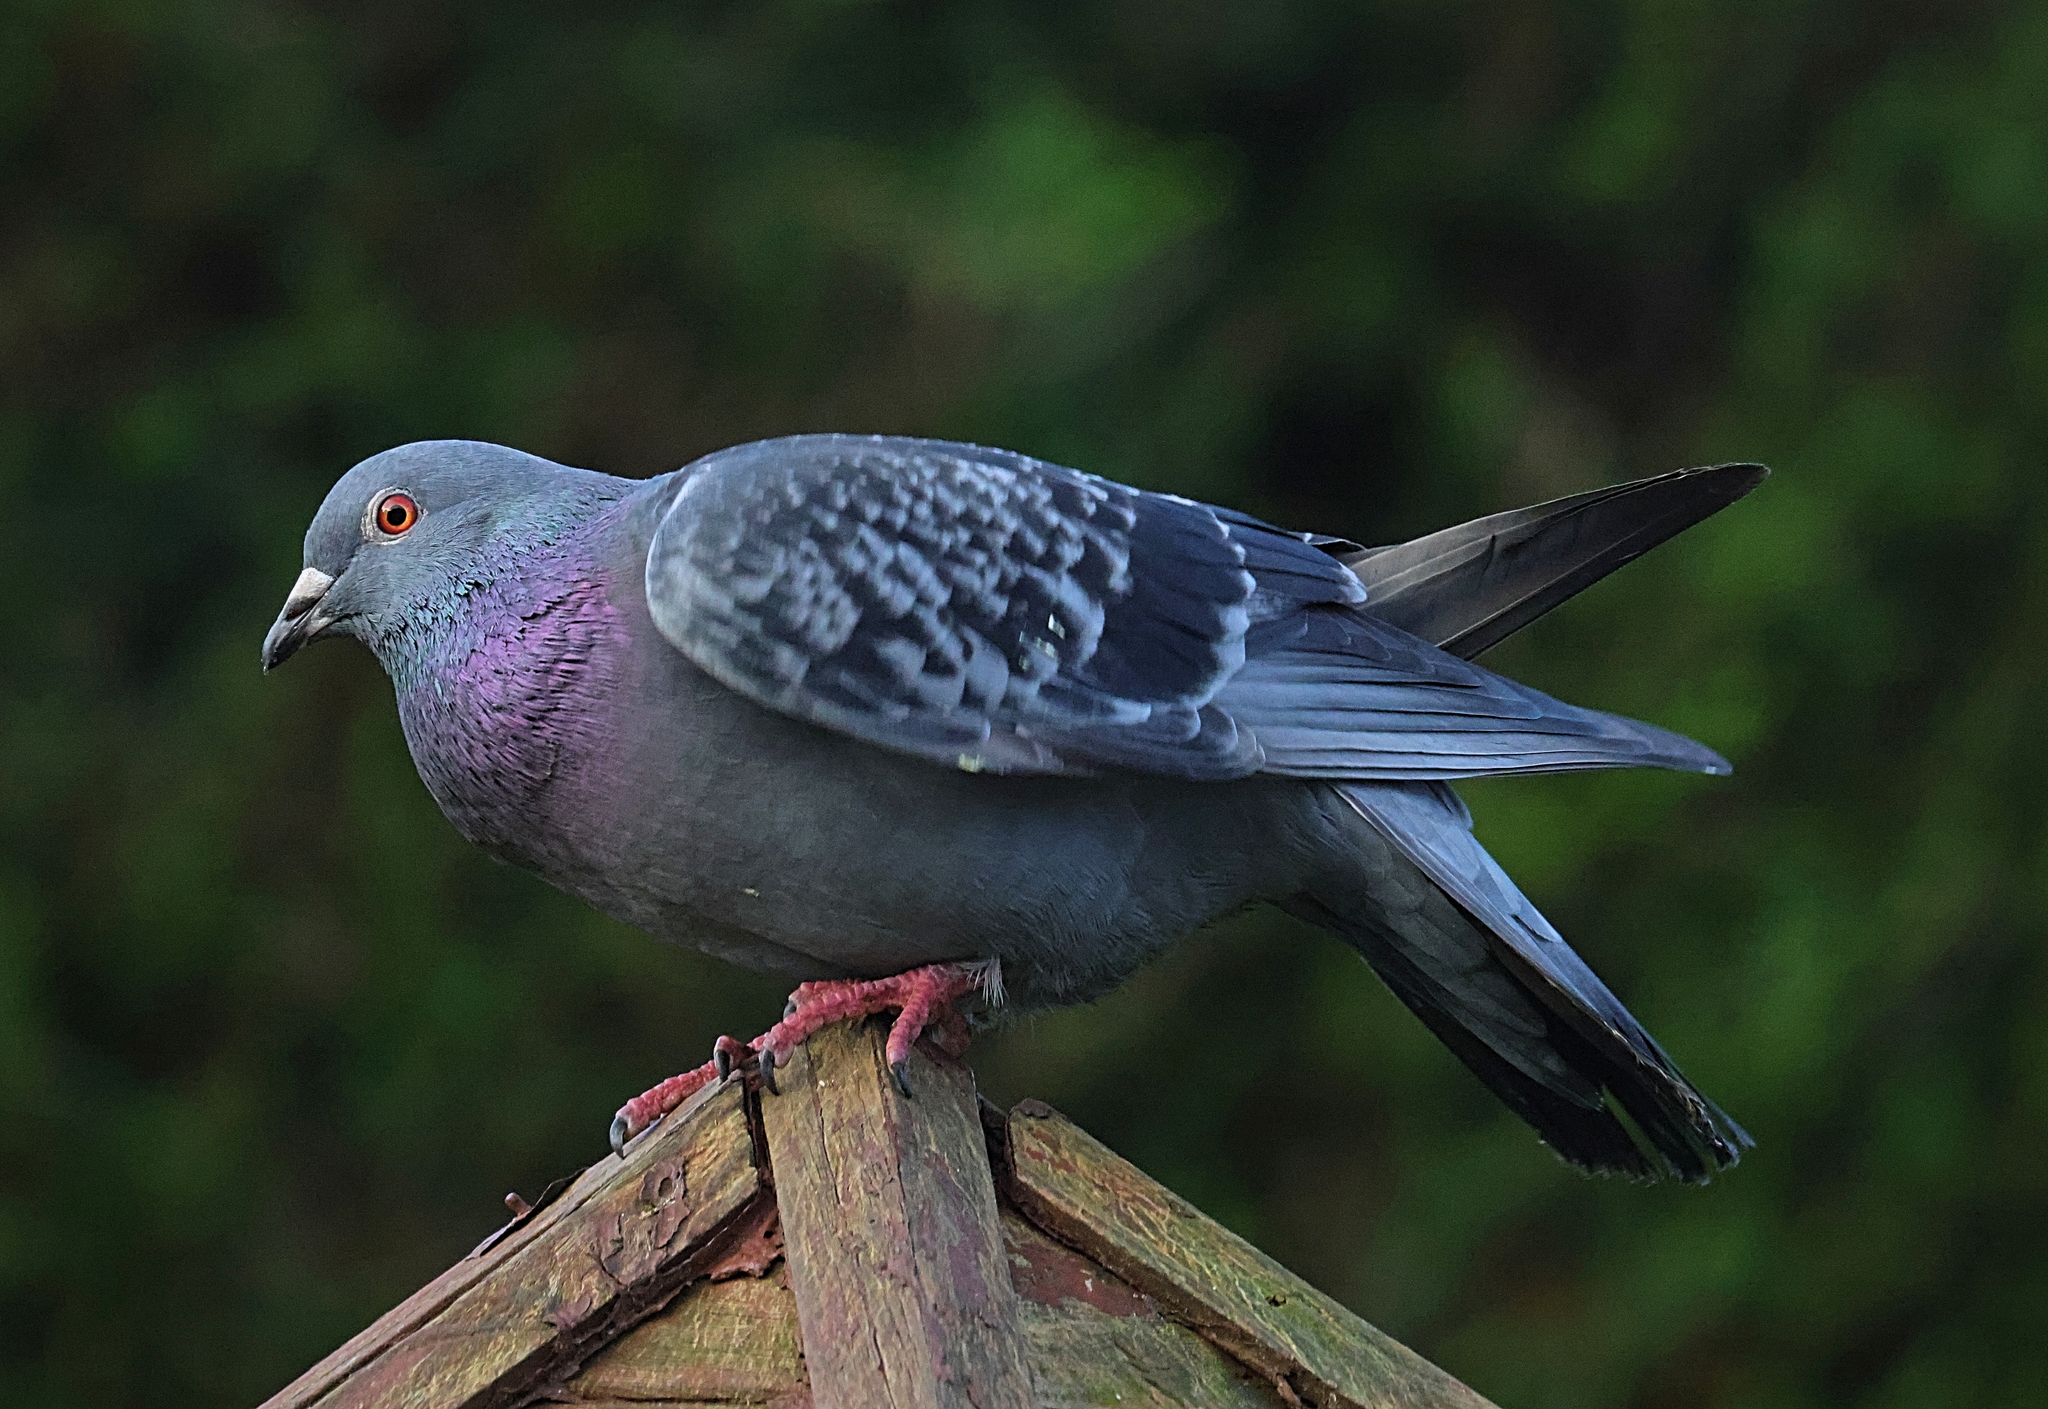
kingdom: Animalia
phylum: Chordata
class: Aves
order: Columbiformes
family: Columbidae
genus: Columba
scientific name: Columba livia
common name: Rock pigeon
